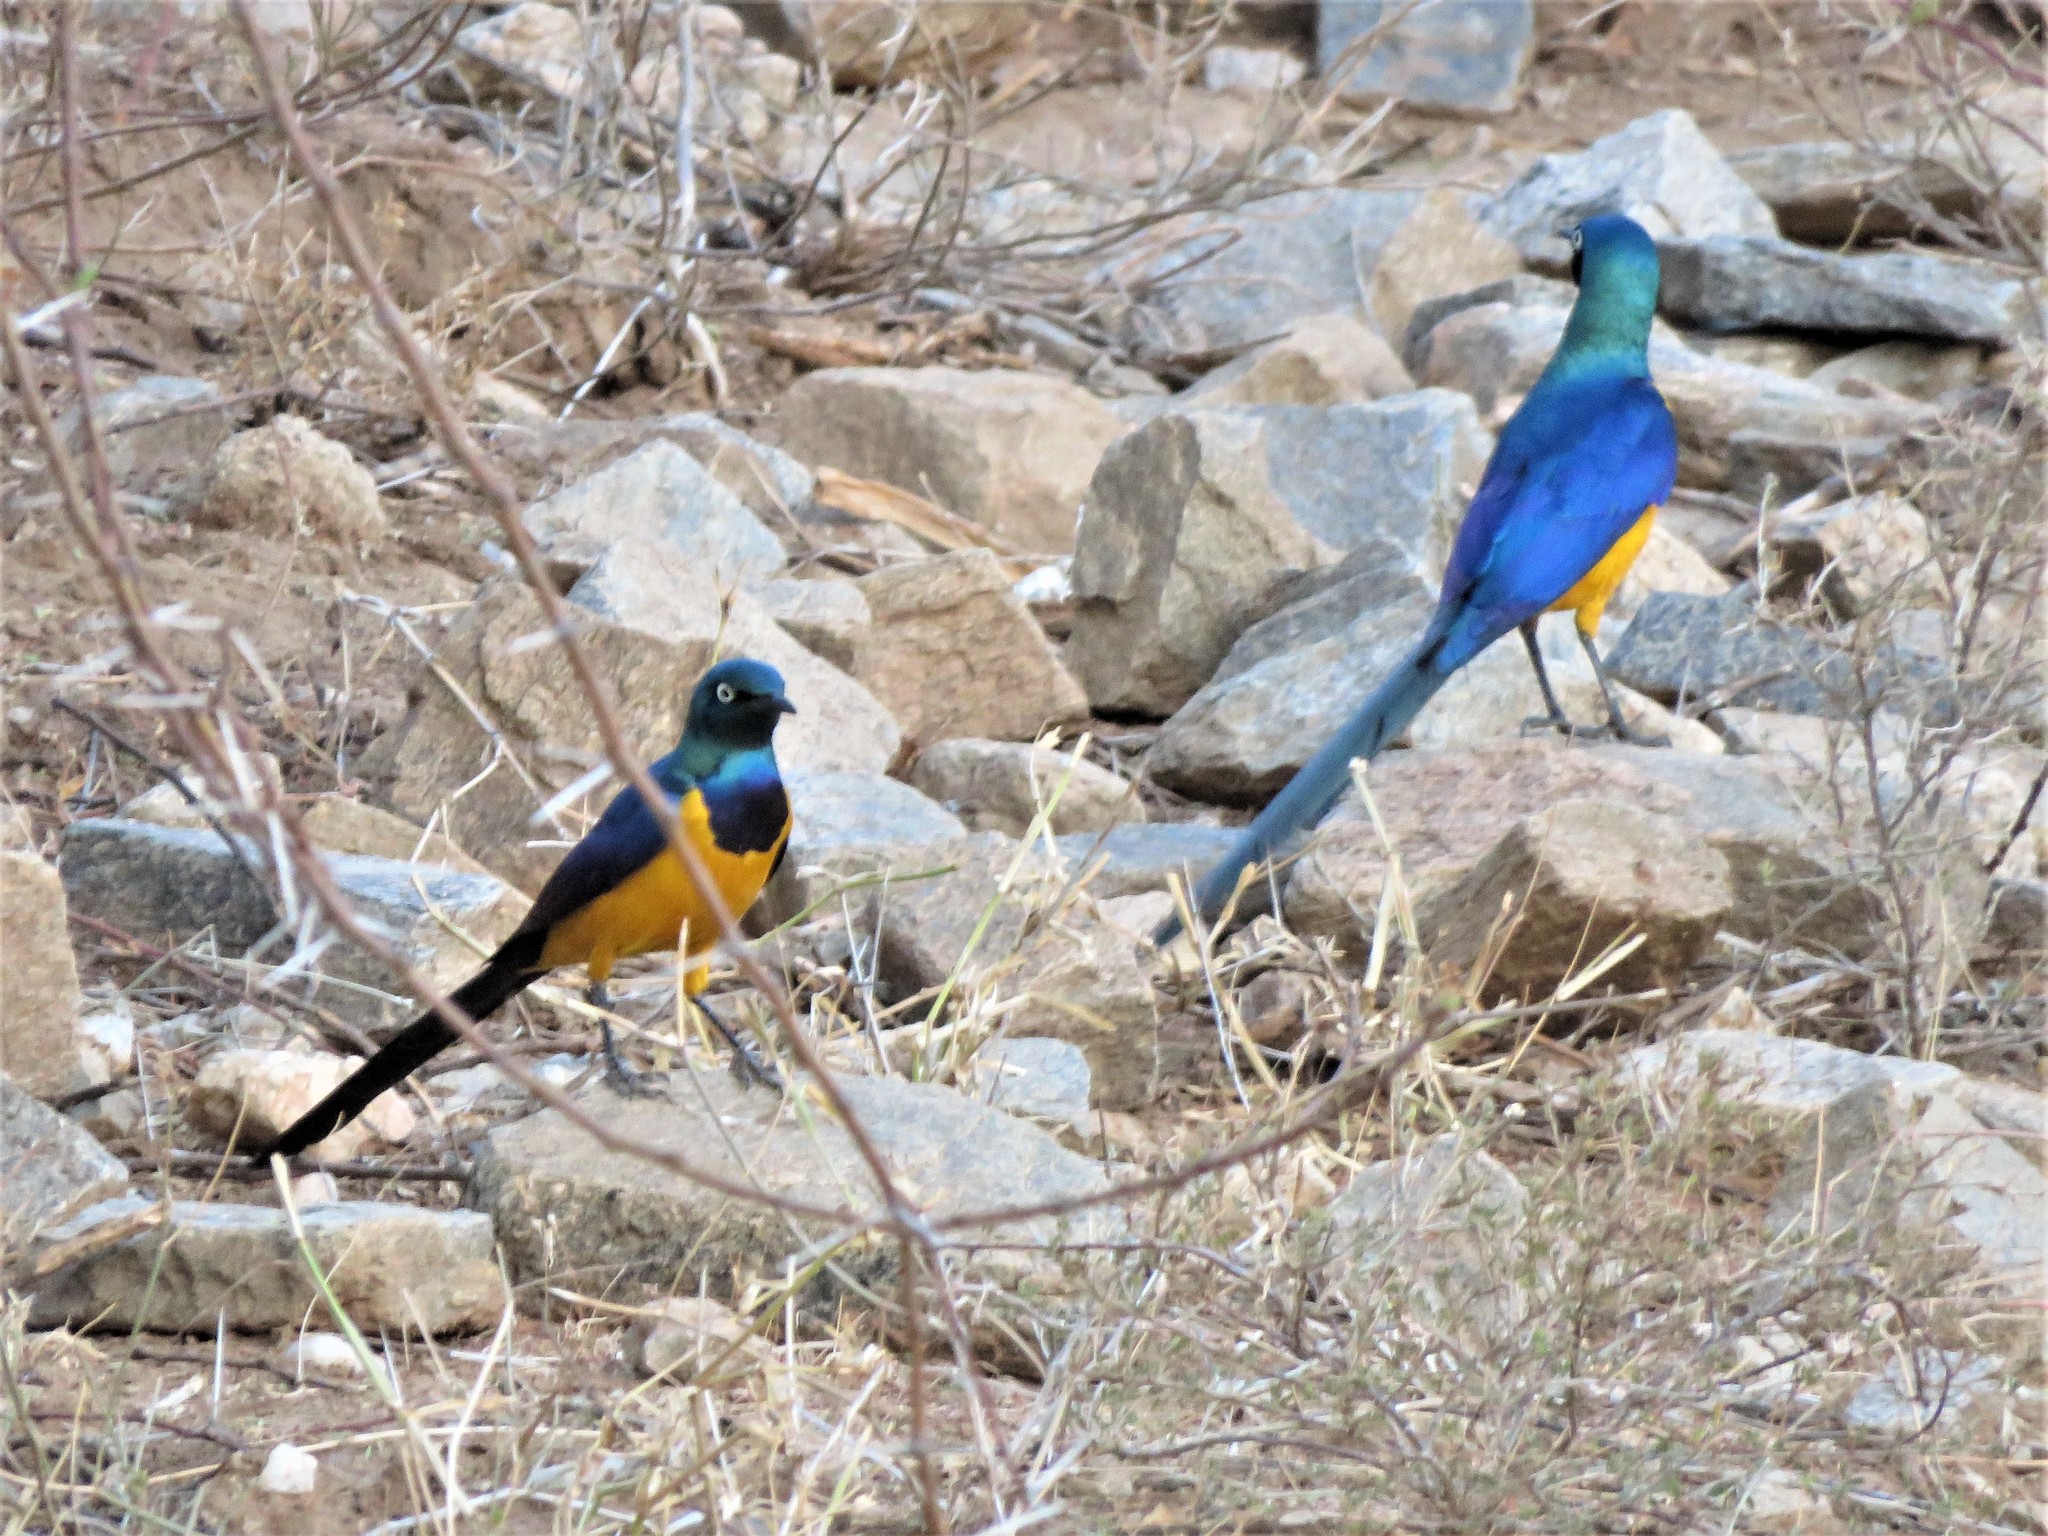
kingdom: Animalia
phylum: Chordata
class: Aves
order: Passeriformes
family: Sturnidae
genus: Lamprotornis
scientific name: Lamprotornis regius
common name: Golden-breasted starling
